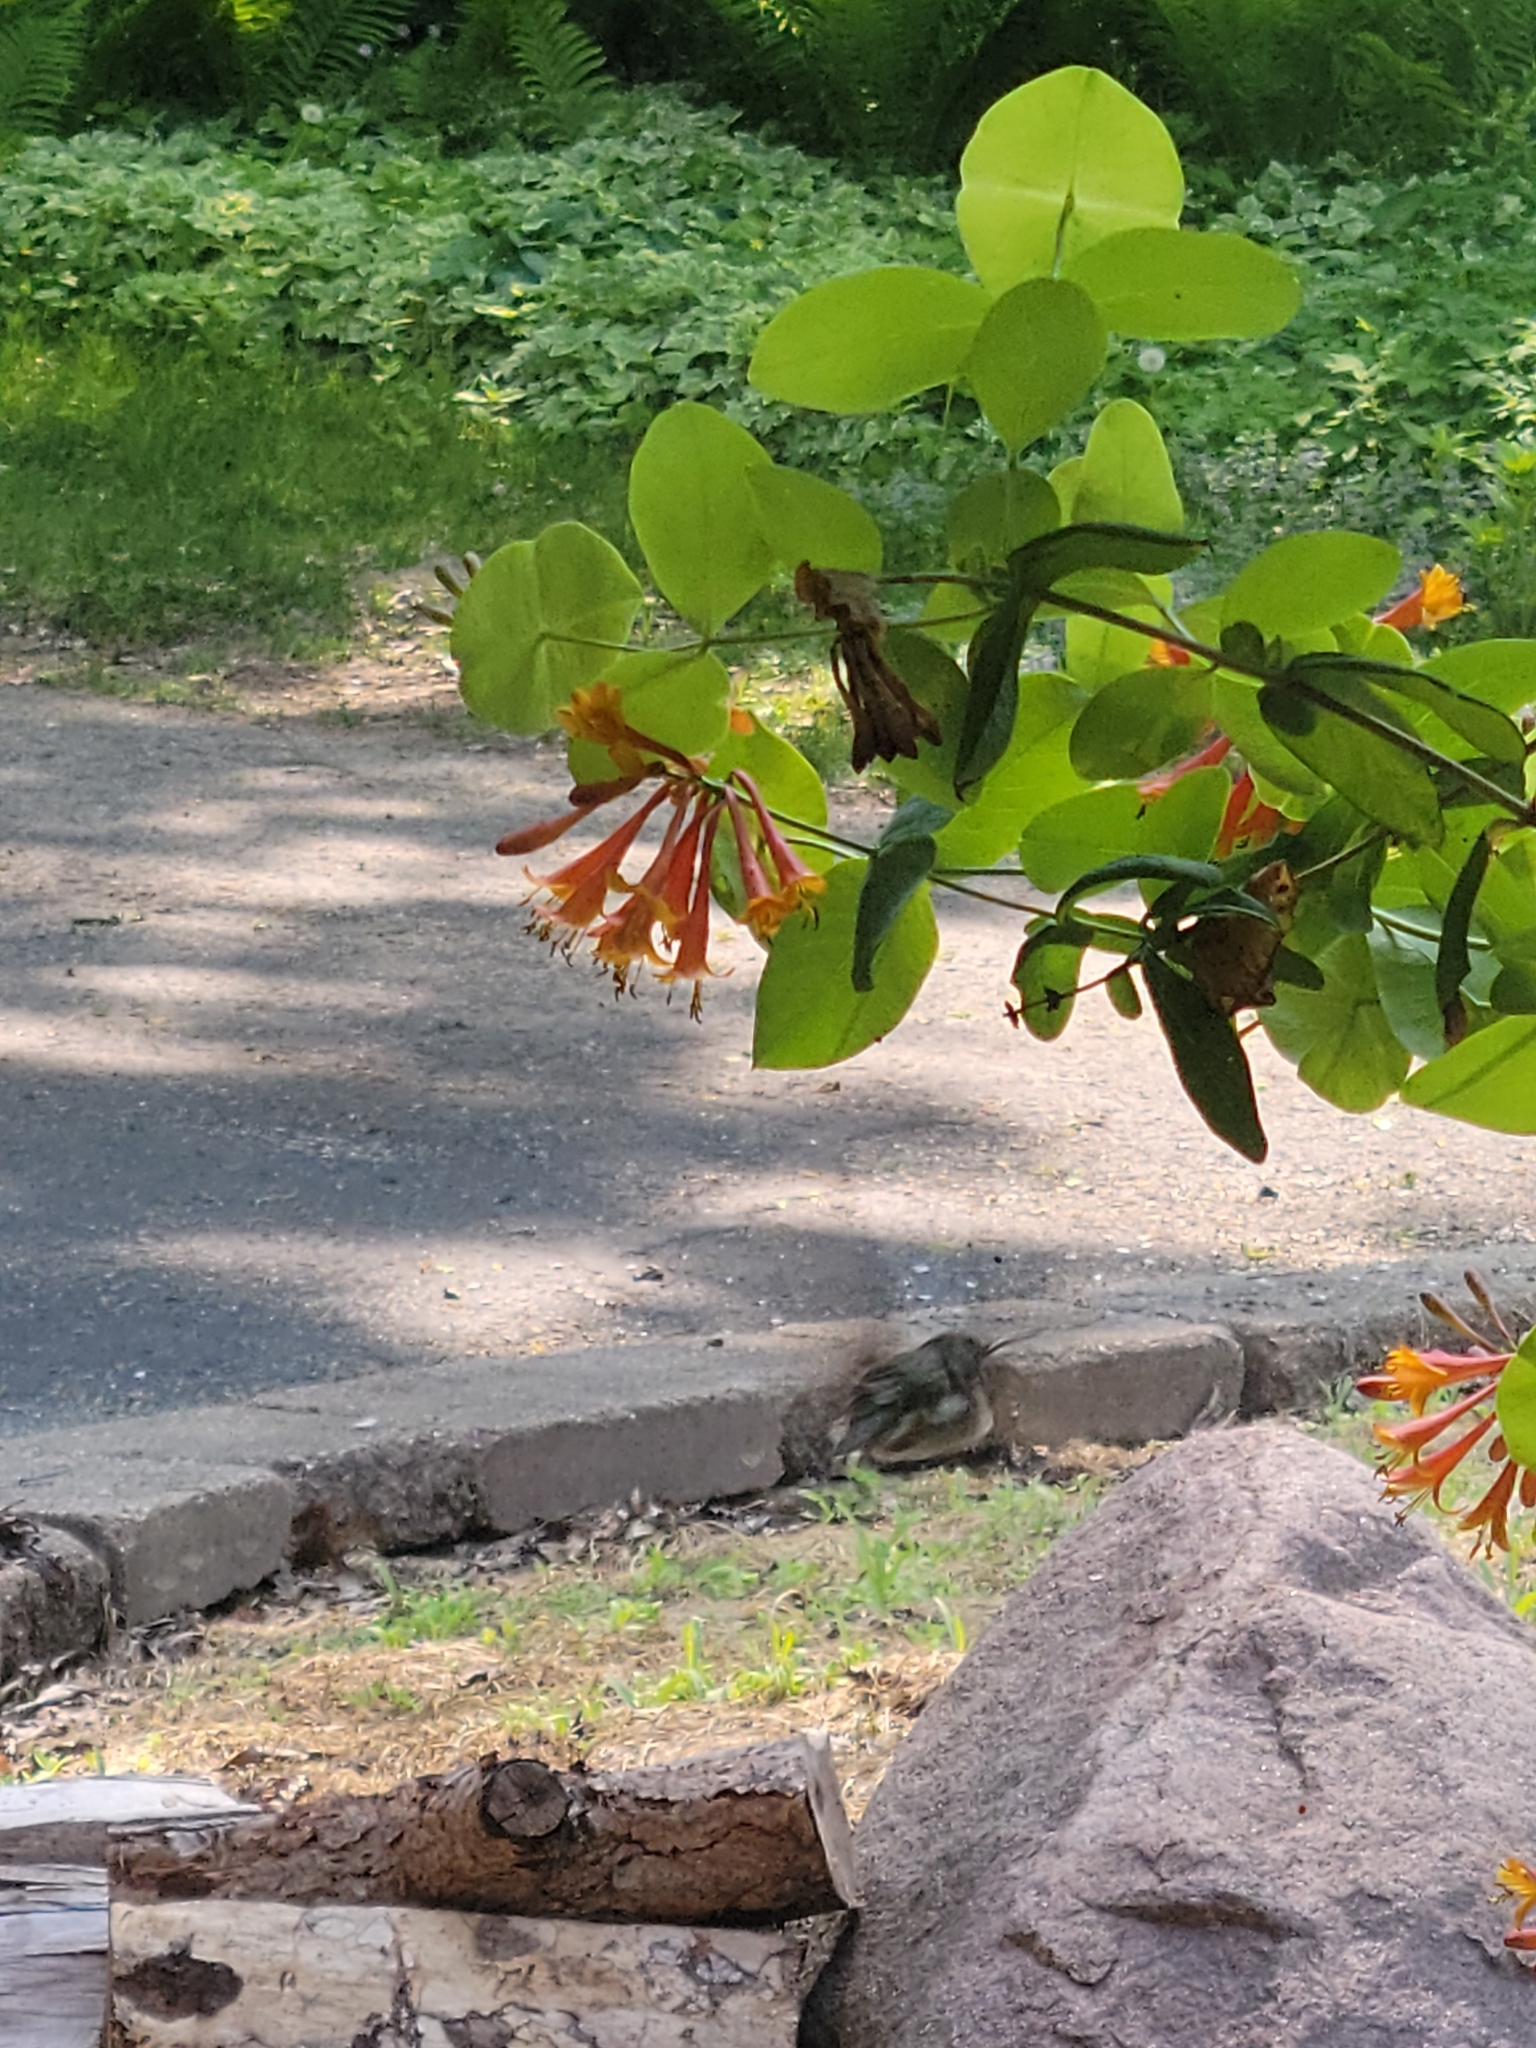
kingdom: Animalia
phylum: Chordata
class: Aves
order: Apodiformes
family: Trochilidae
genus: Archilochus
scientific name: Archilochus colubris
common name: Ruby-throated hummingbird
